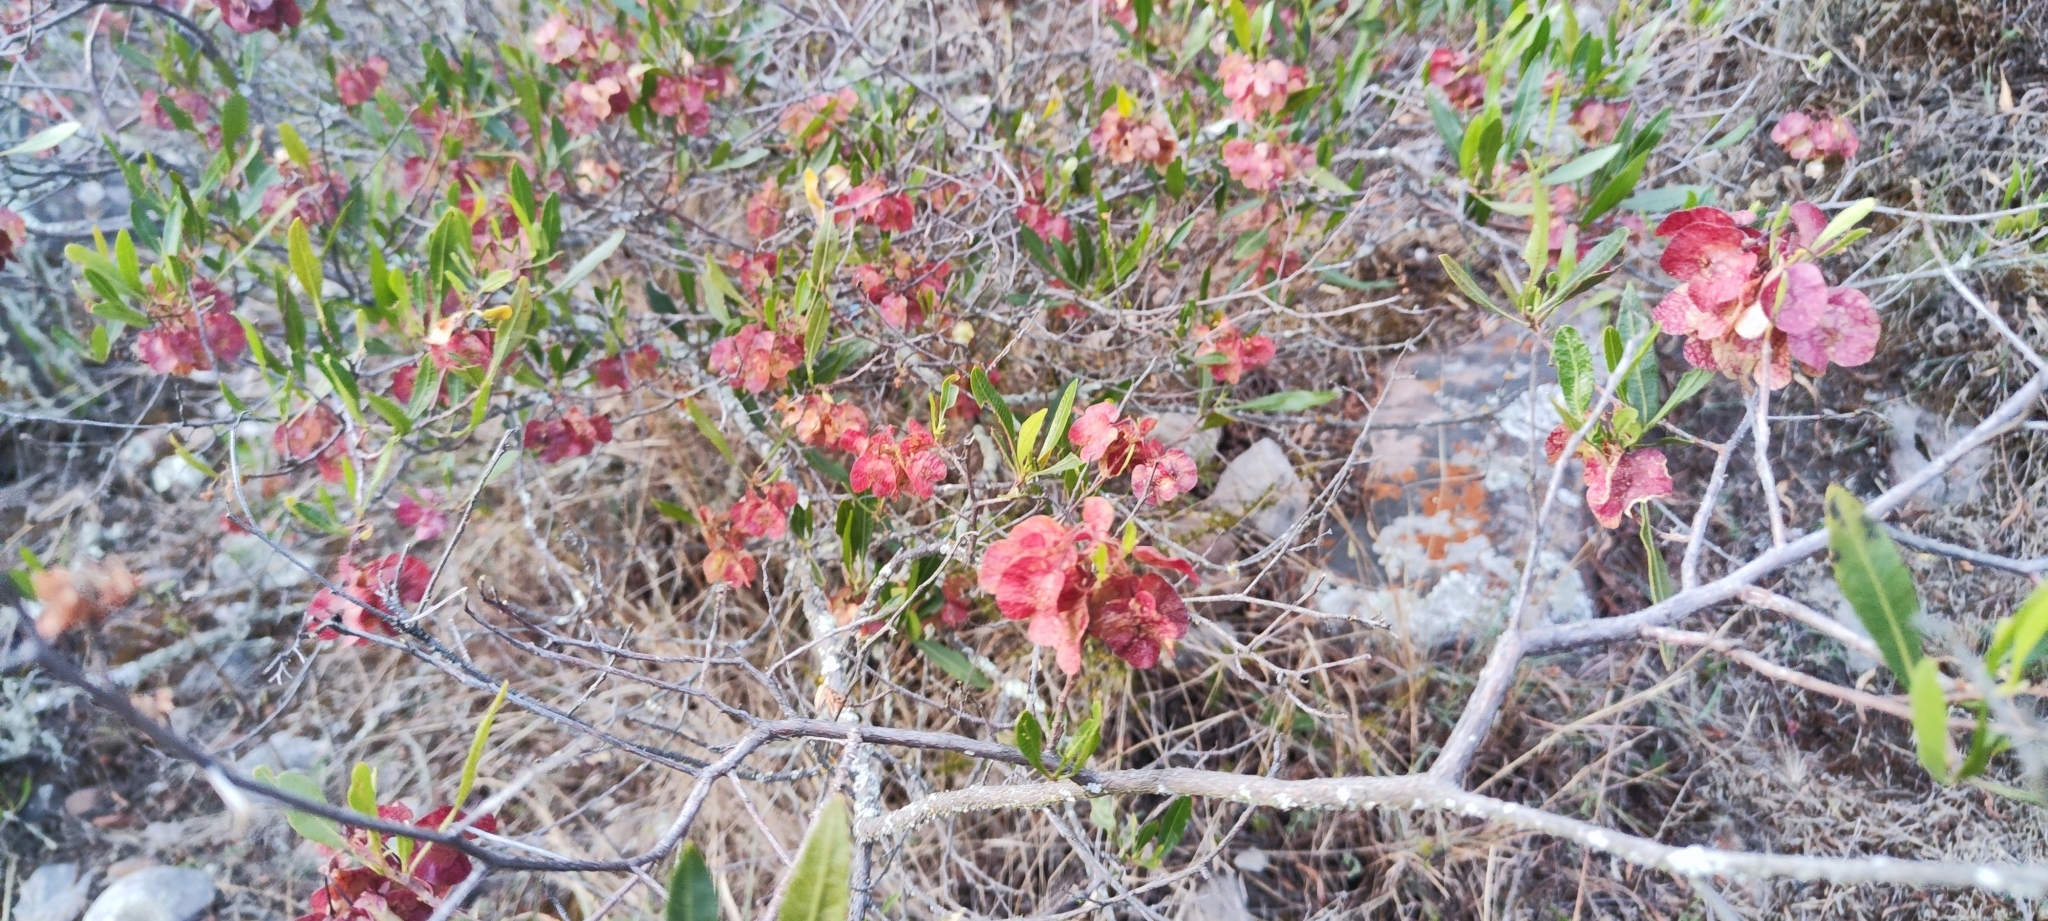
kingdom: Plantae
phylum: Tracheophyta
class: Magnoliopsida
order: Sapindales
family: Sapindaceae
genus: Dodonaea
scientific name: Dodonaea viscosa
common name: Hopbush
